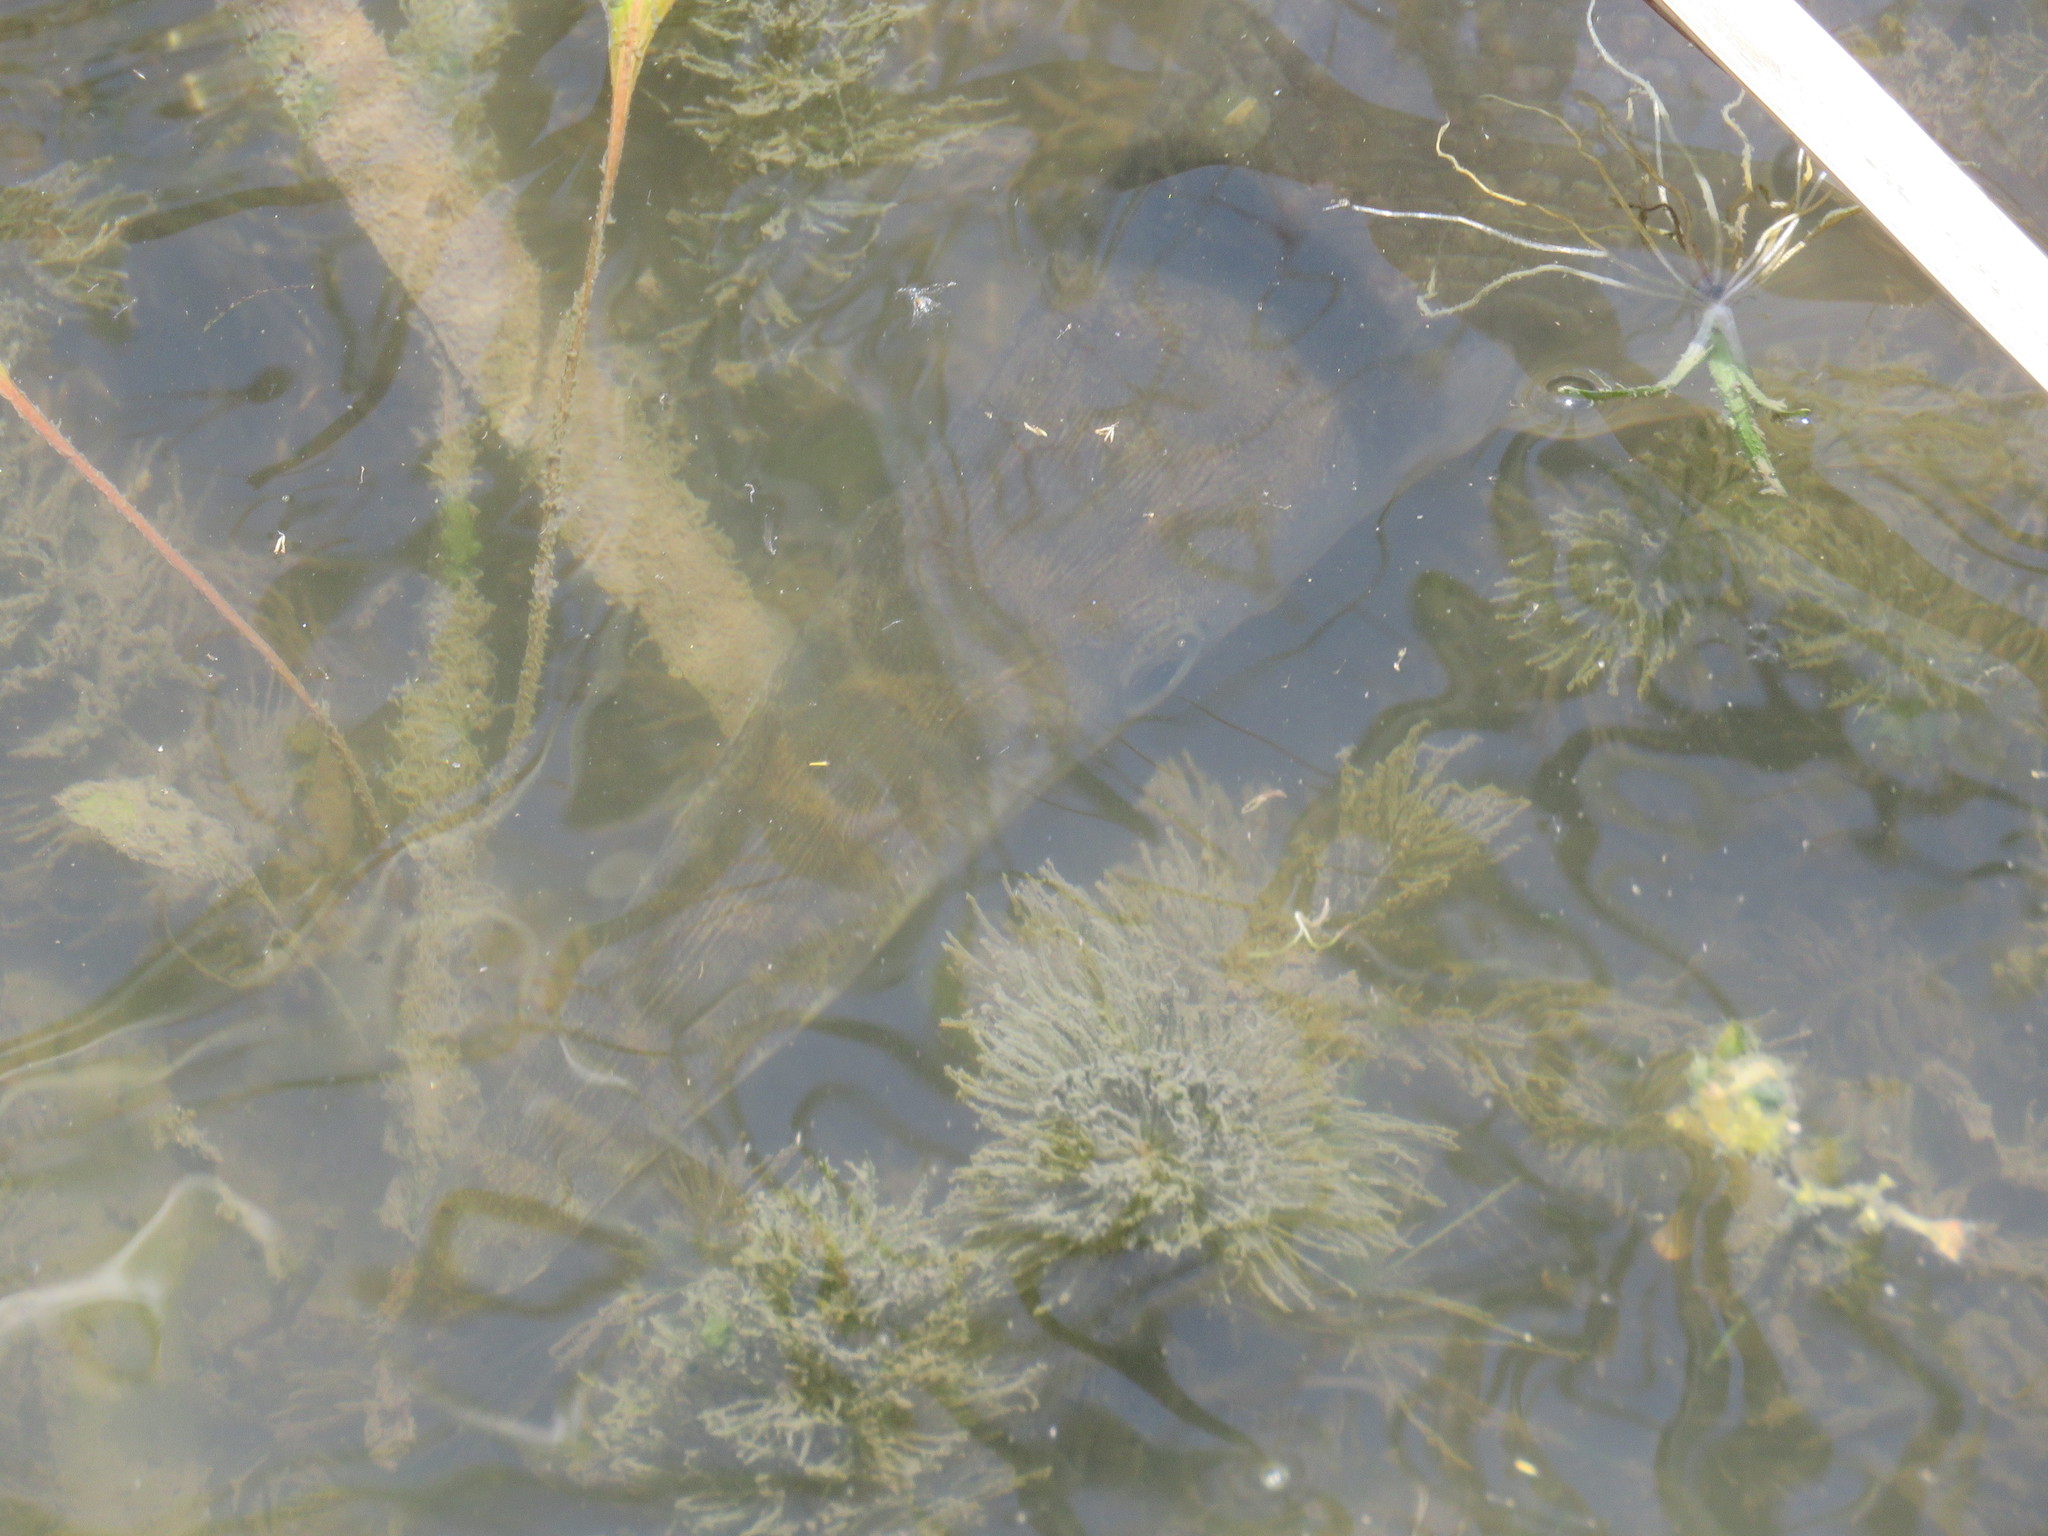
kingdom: Animalia
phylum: Chordata
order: Lepisosteiformes
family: Lepisosteidae
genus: Lepisosteus
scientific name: Lepisosteus oculatus
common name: Spotted gar
